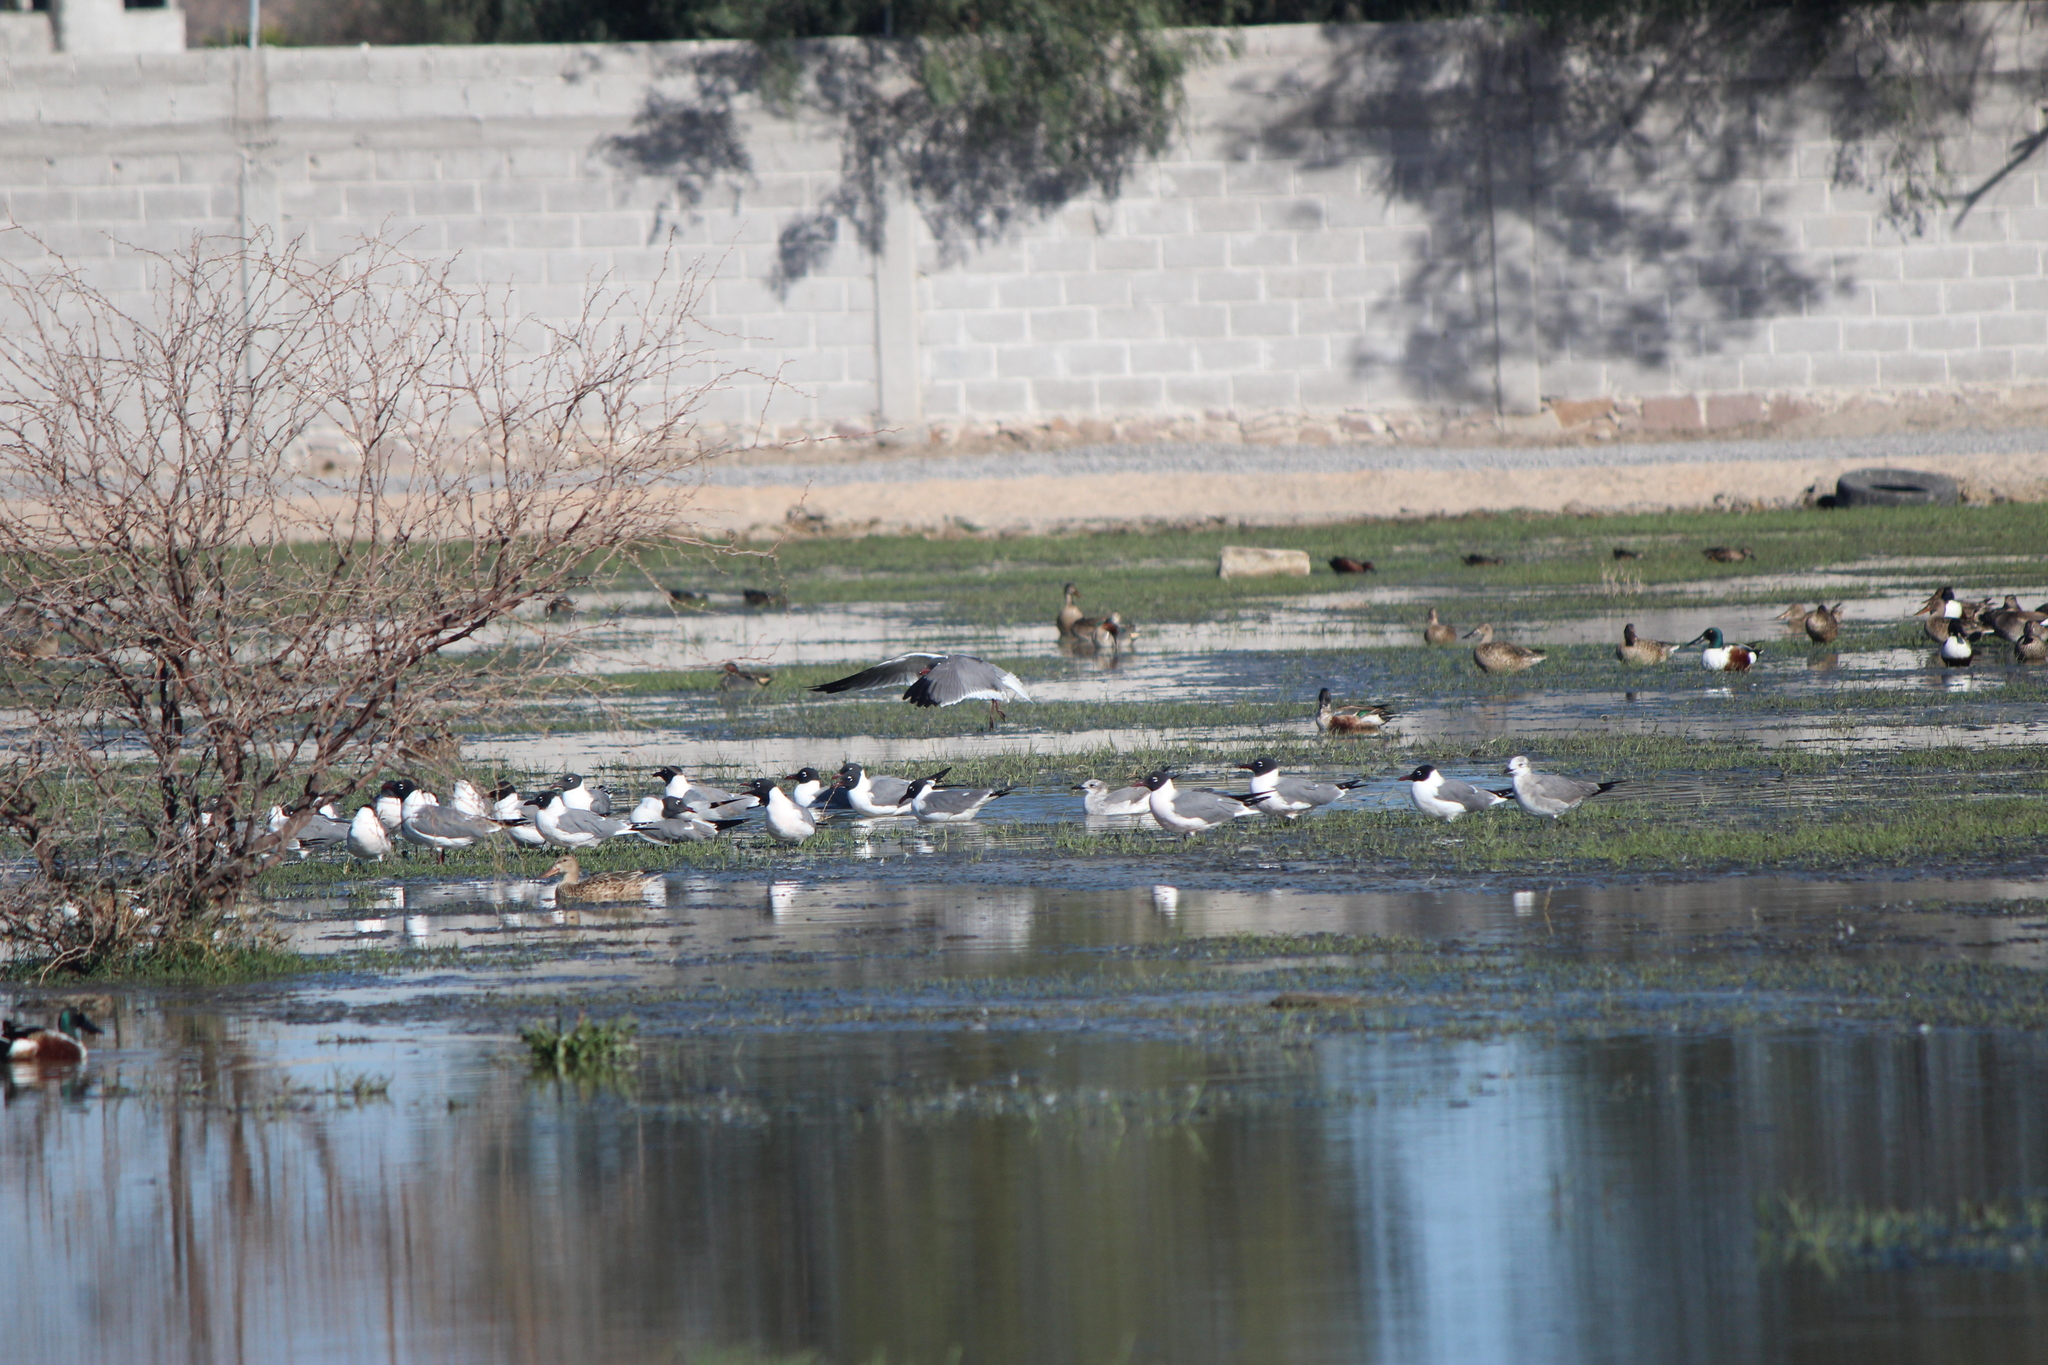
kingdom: Animalia
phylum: Chordata
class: Aves
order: Charadriiformes
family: Laridae
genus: Leucophaeus
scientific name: Leucophaeus atricilla
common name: Laughing gull
